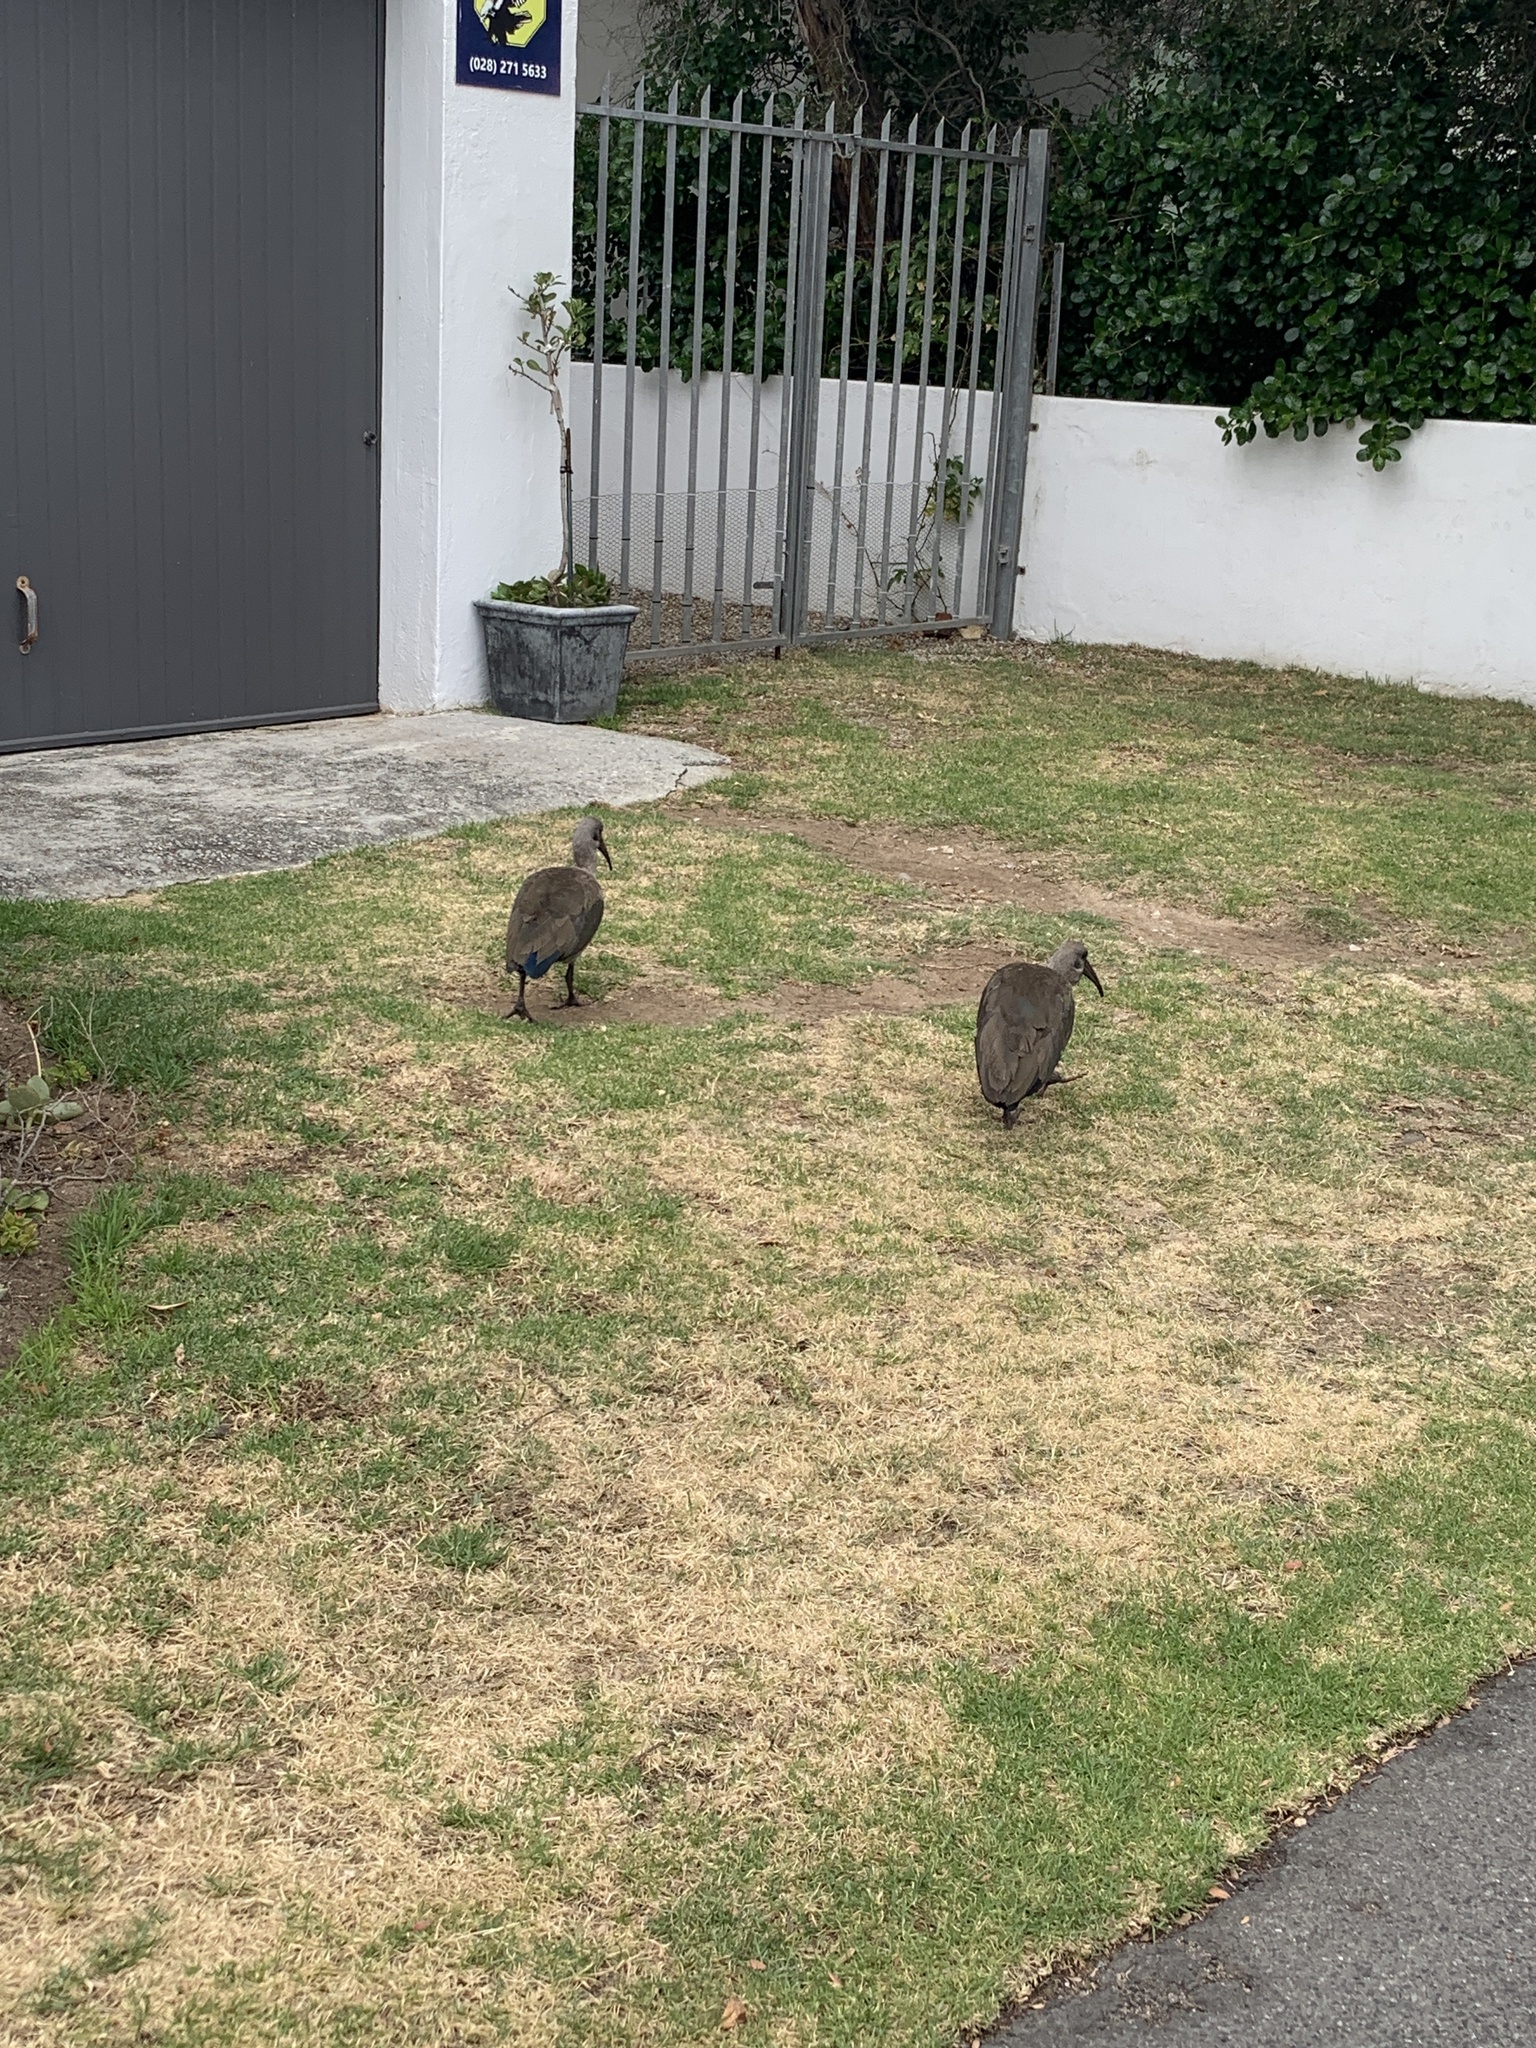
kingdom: Animalia
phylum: Chordata
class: Aves
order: Pelecaniformes
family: Threskiornithidae
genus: Bostrychia
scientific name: Bostrychia hagedash
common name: Hadada ibis
